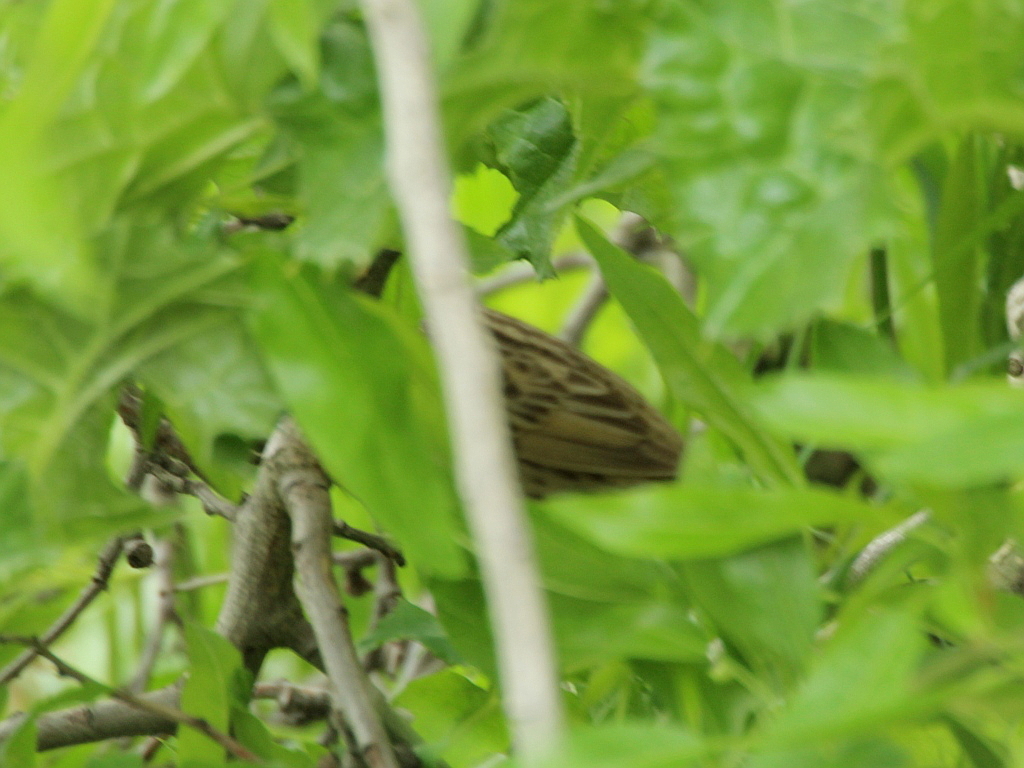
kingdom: Animalia
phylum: Chordata
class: Aves
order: Passeriformes
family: Locustellidae
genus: Locustella
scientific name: Locustella naevia
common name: Common grasshopper warbler
